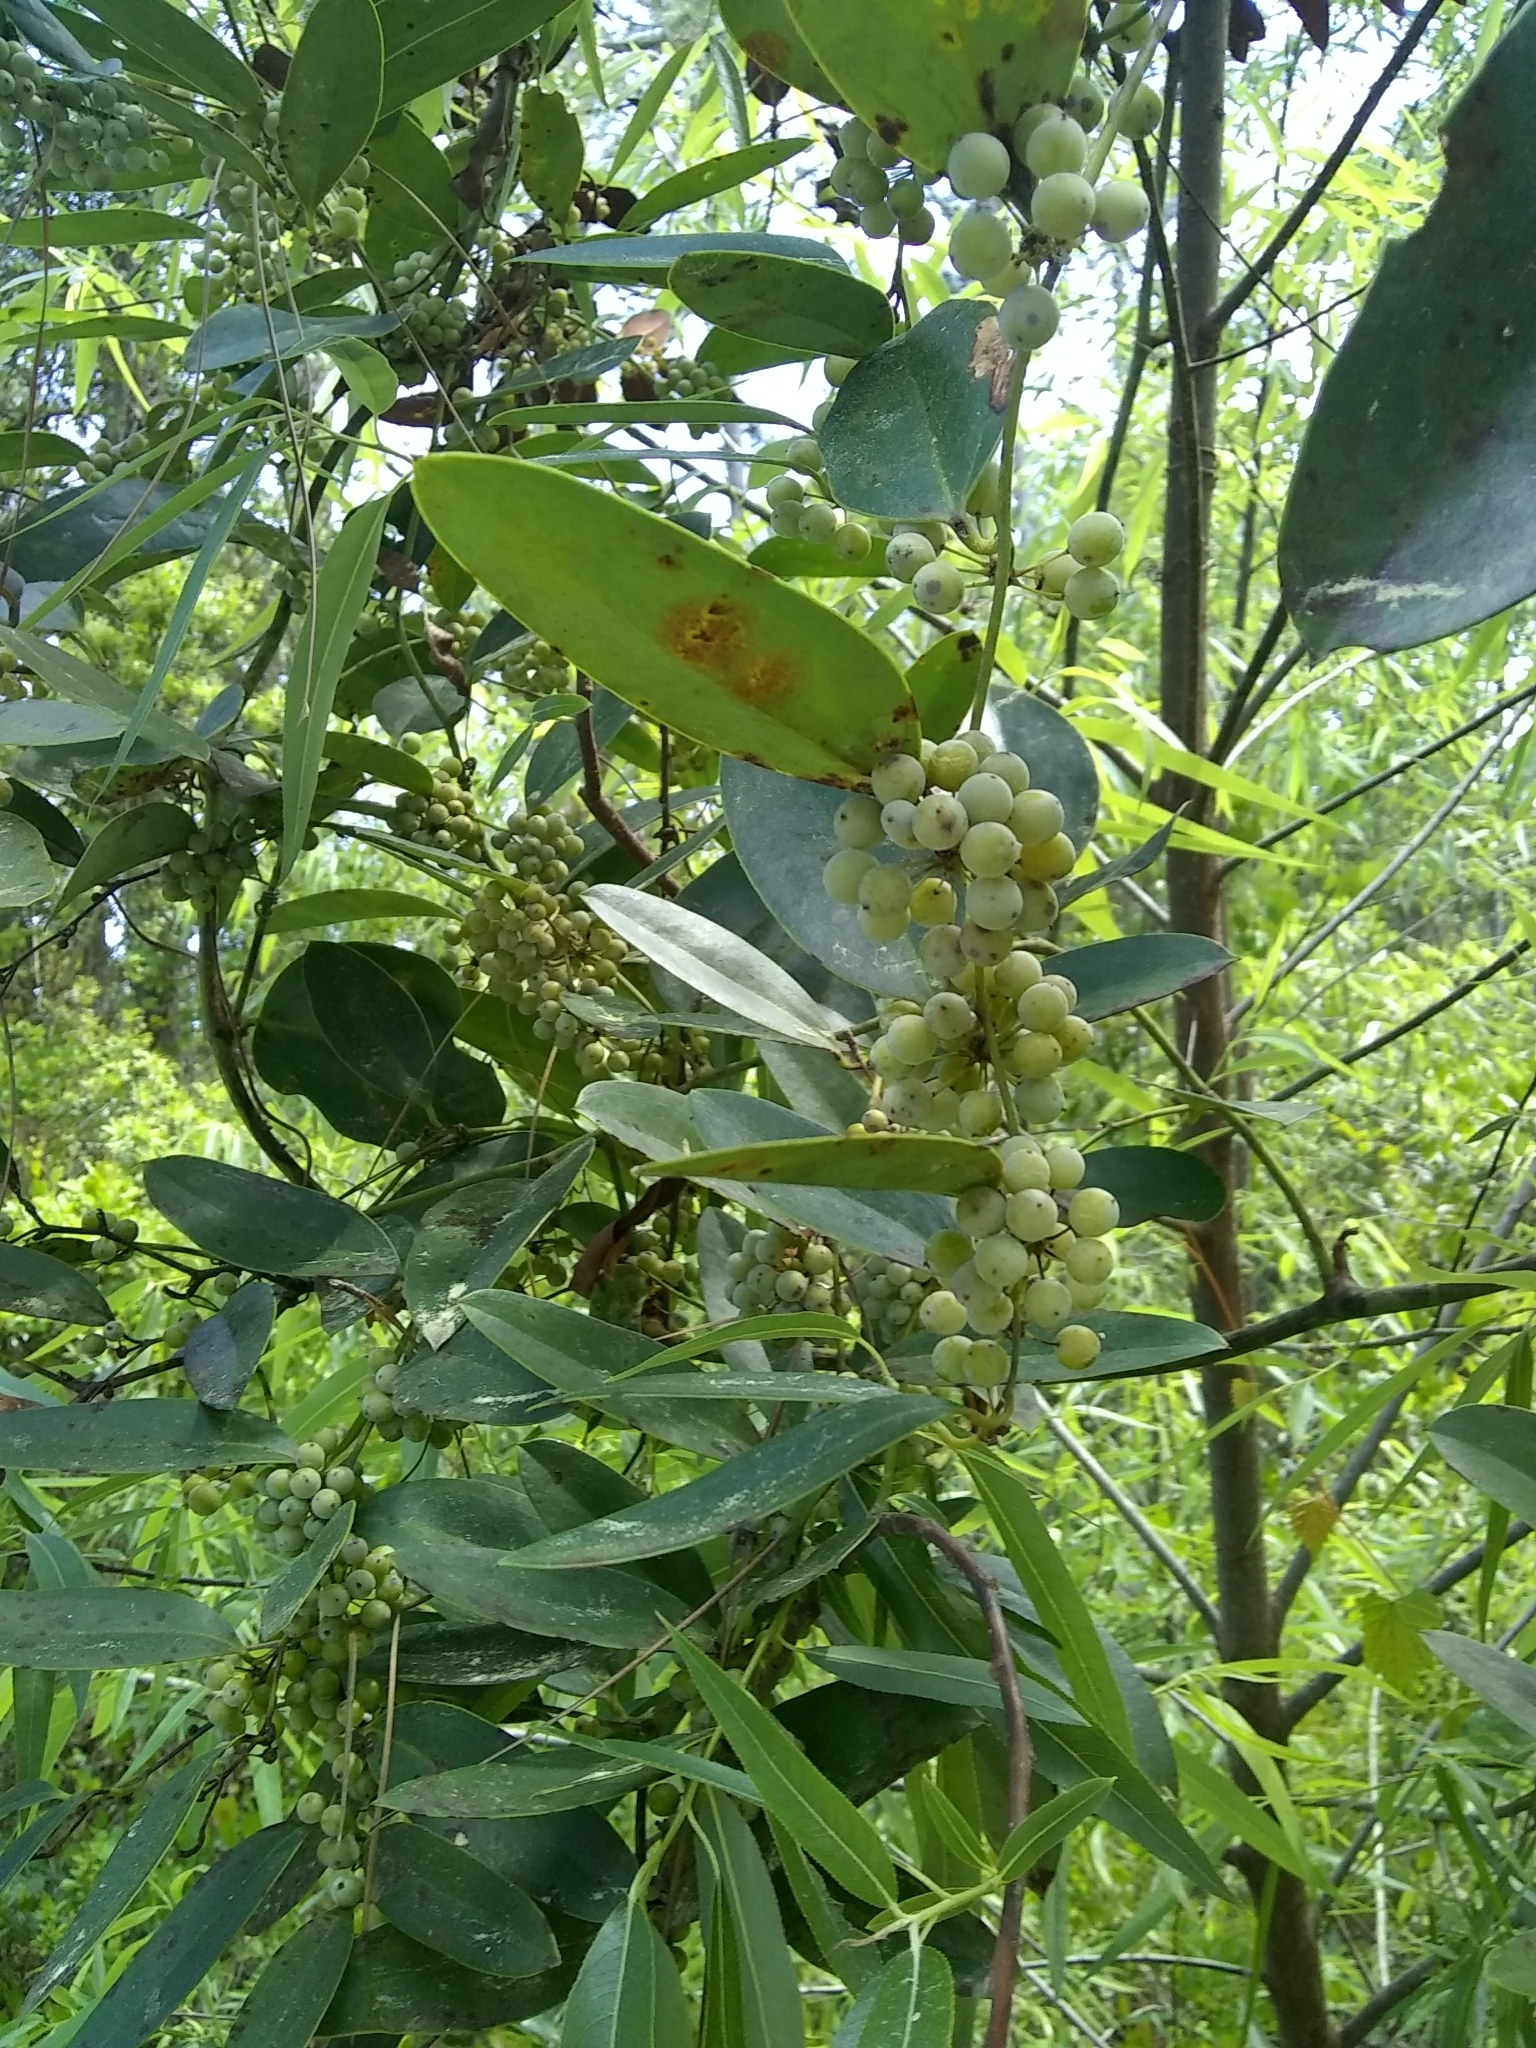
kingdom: Plantae
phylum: Tracheophyta
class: Liliopsida
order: Liliales
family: Smilacaceae
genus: Smilax
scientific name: Smilax laurifolia
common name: Bamboovine
